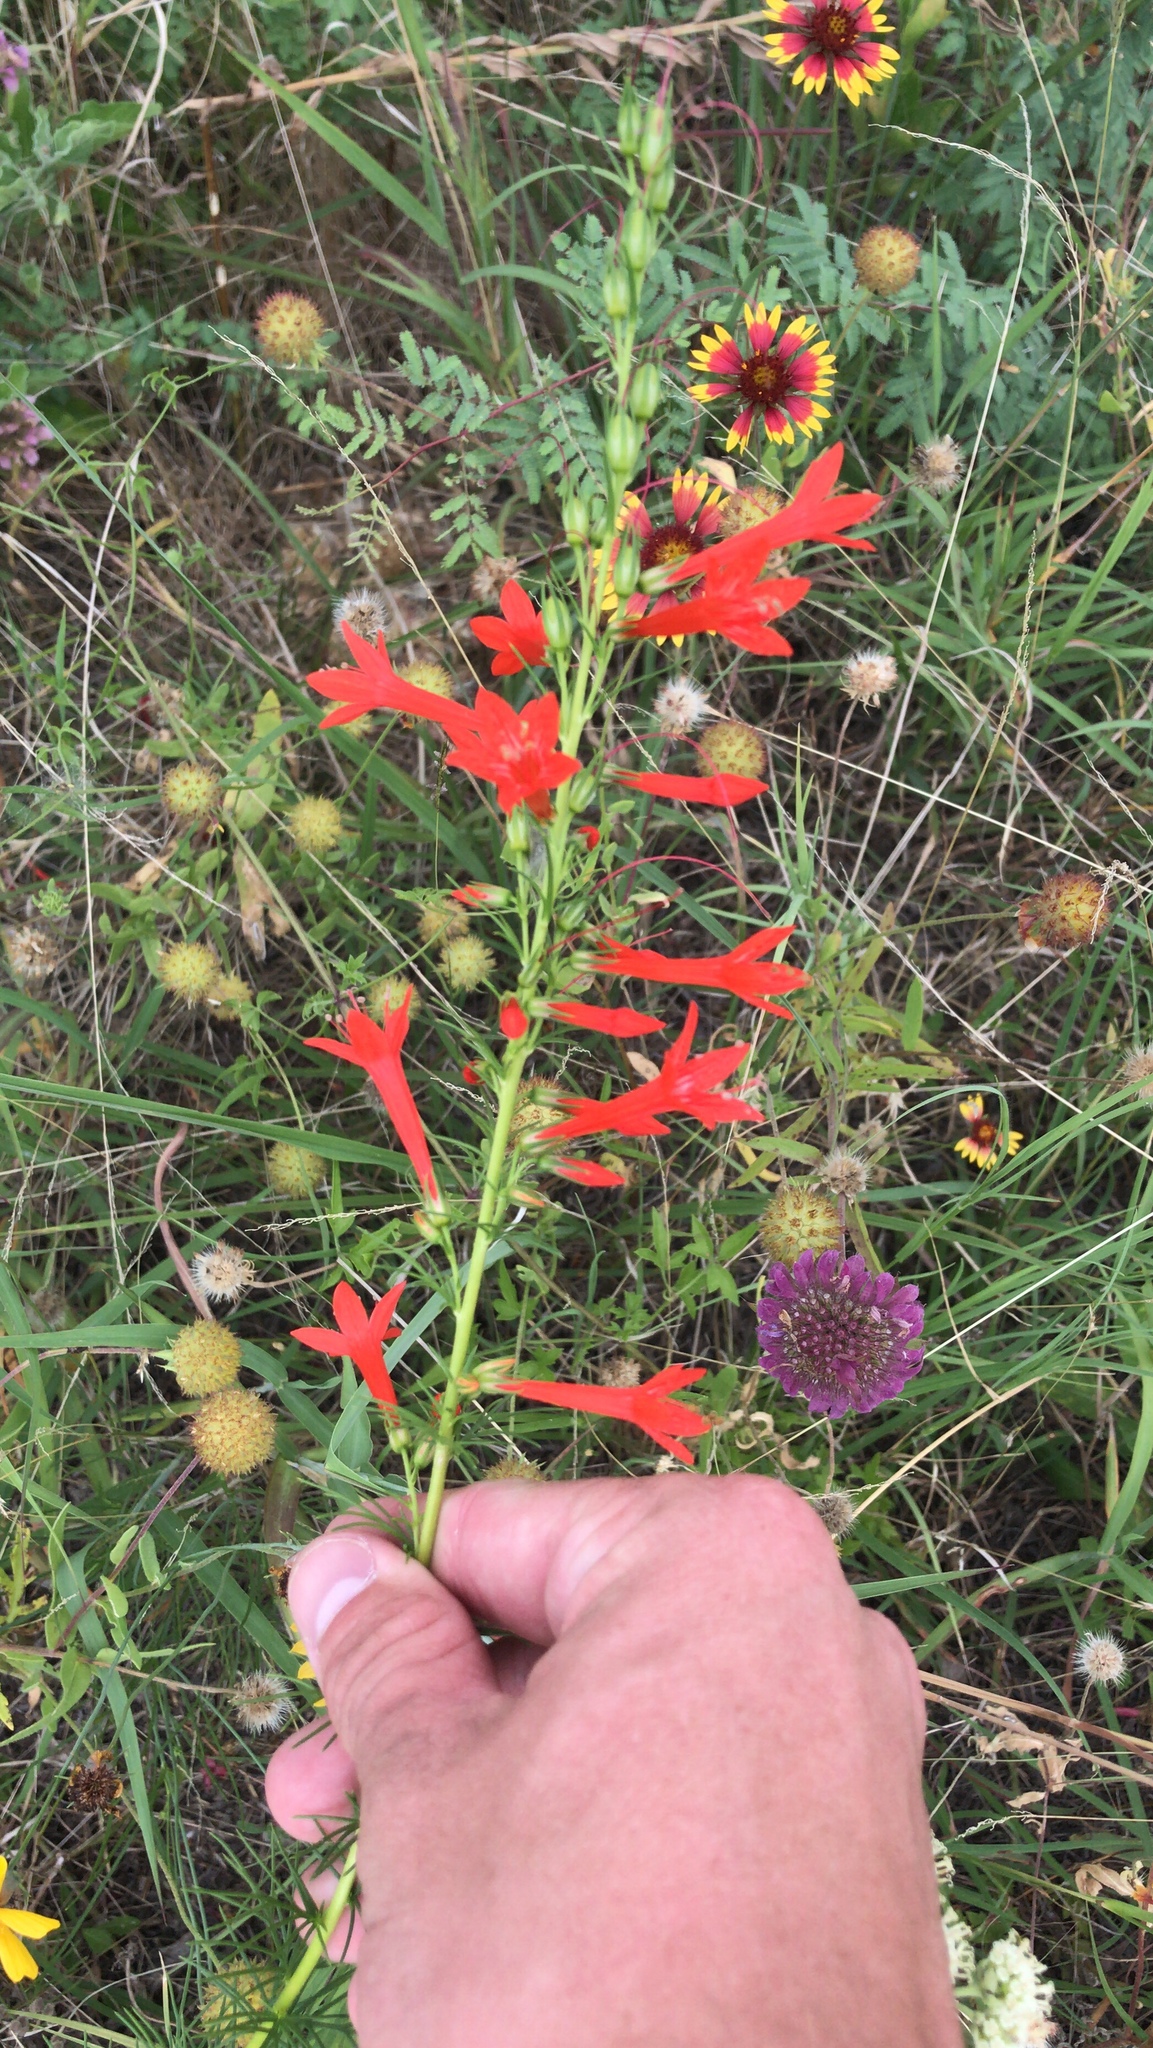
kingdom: Plantae
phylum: Tracheophyta
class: Magnoliopsida
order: Ericales
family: Polemoniaceae
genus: Ipomopsis
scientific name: Ipomopsis rubra
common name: Skyrocket
